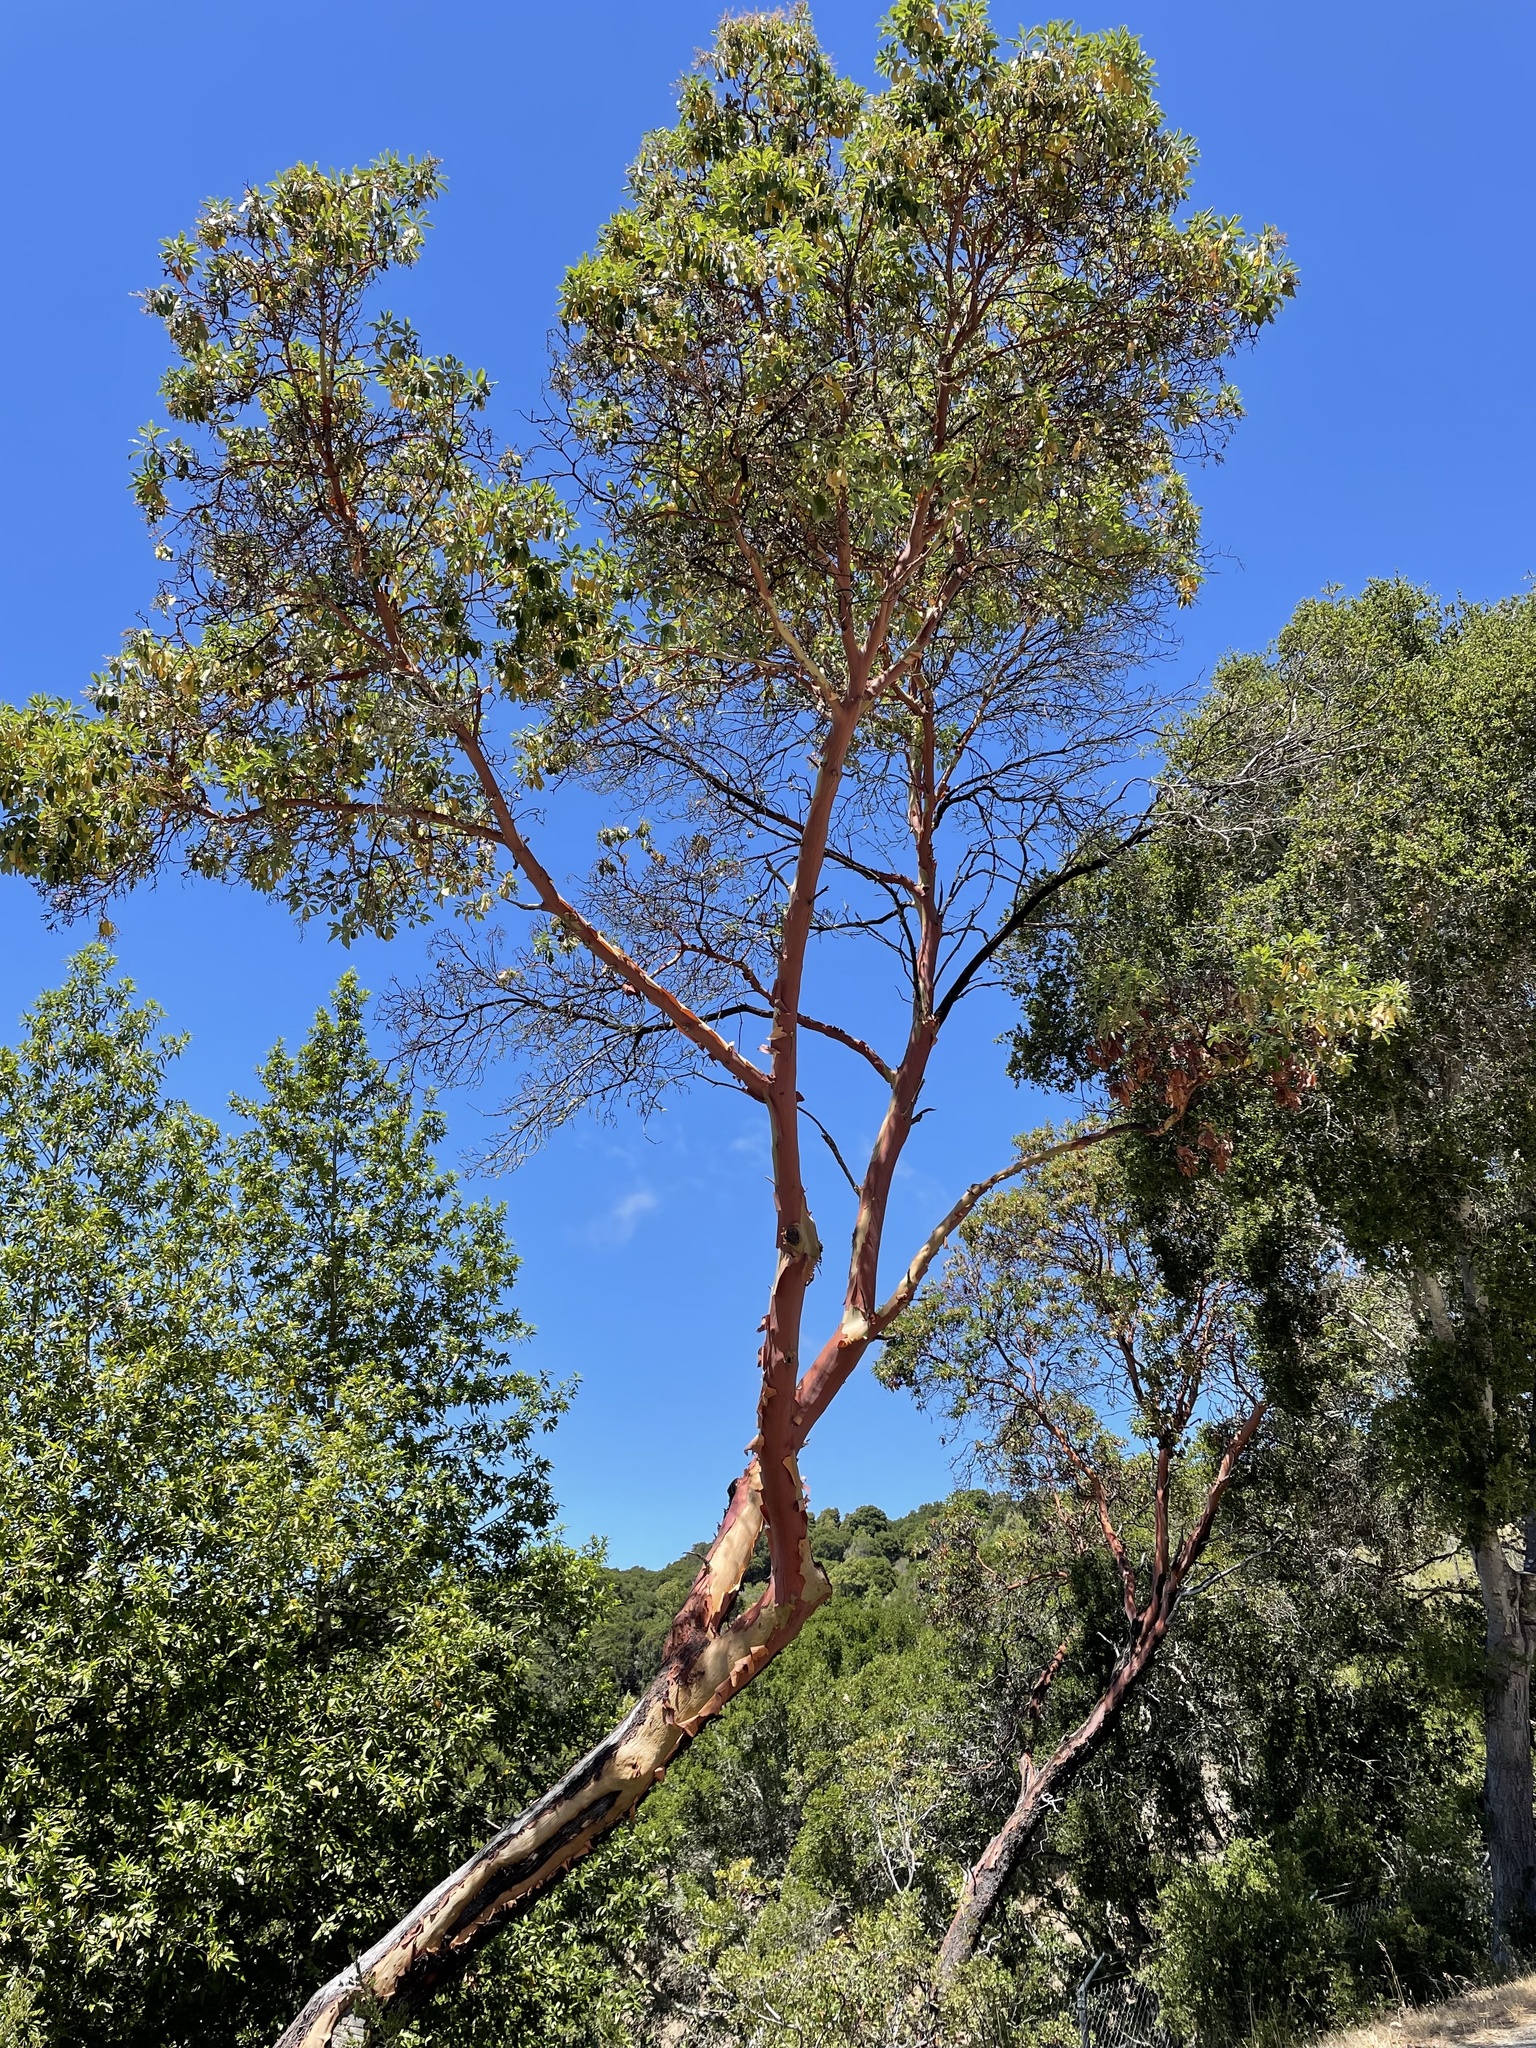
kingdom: Plantae
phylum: Tracheophyta
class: Magnoliopsida
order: Ericales
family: Ericaceae
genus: Arbutus
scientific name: Arbutus menziesii
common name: Pacific madrone
